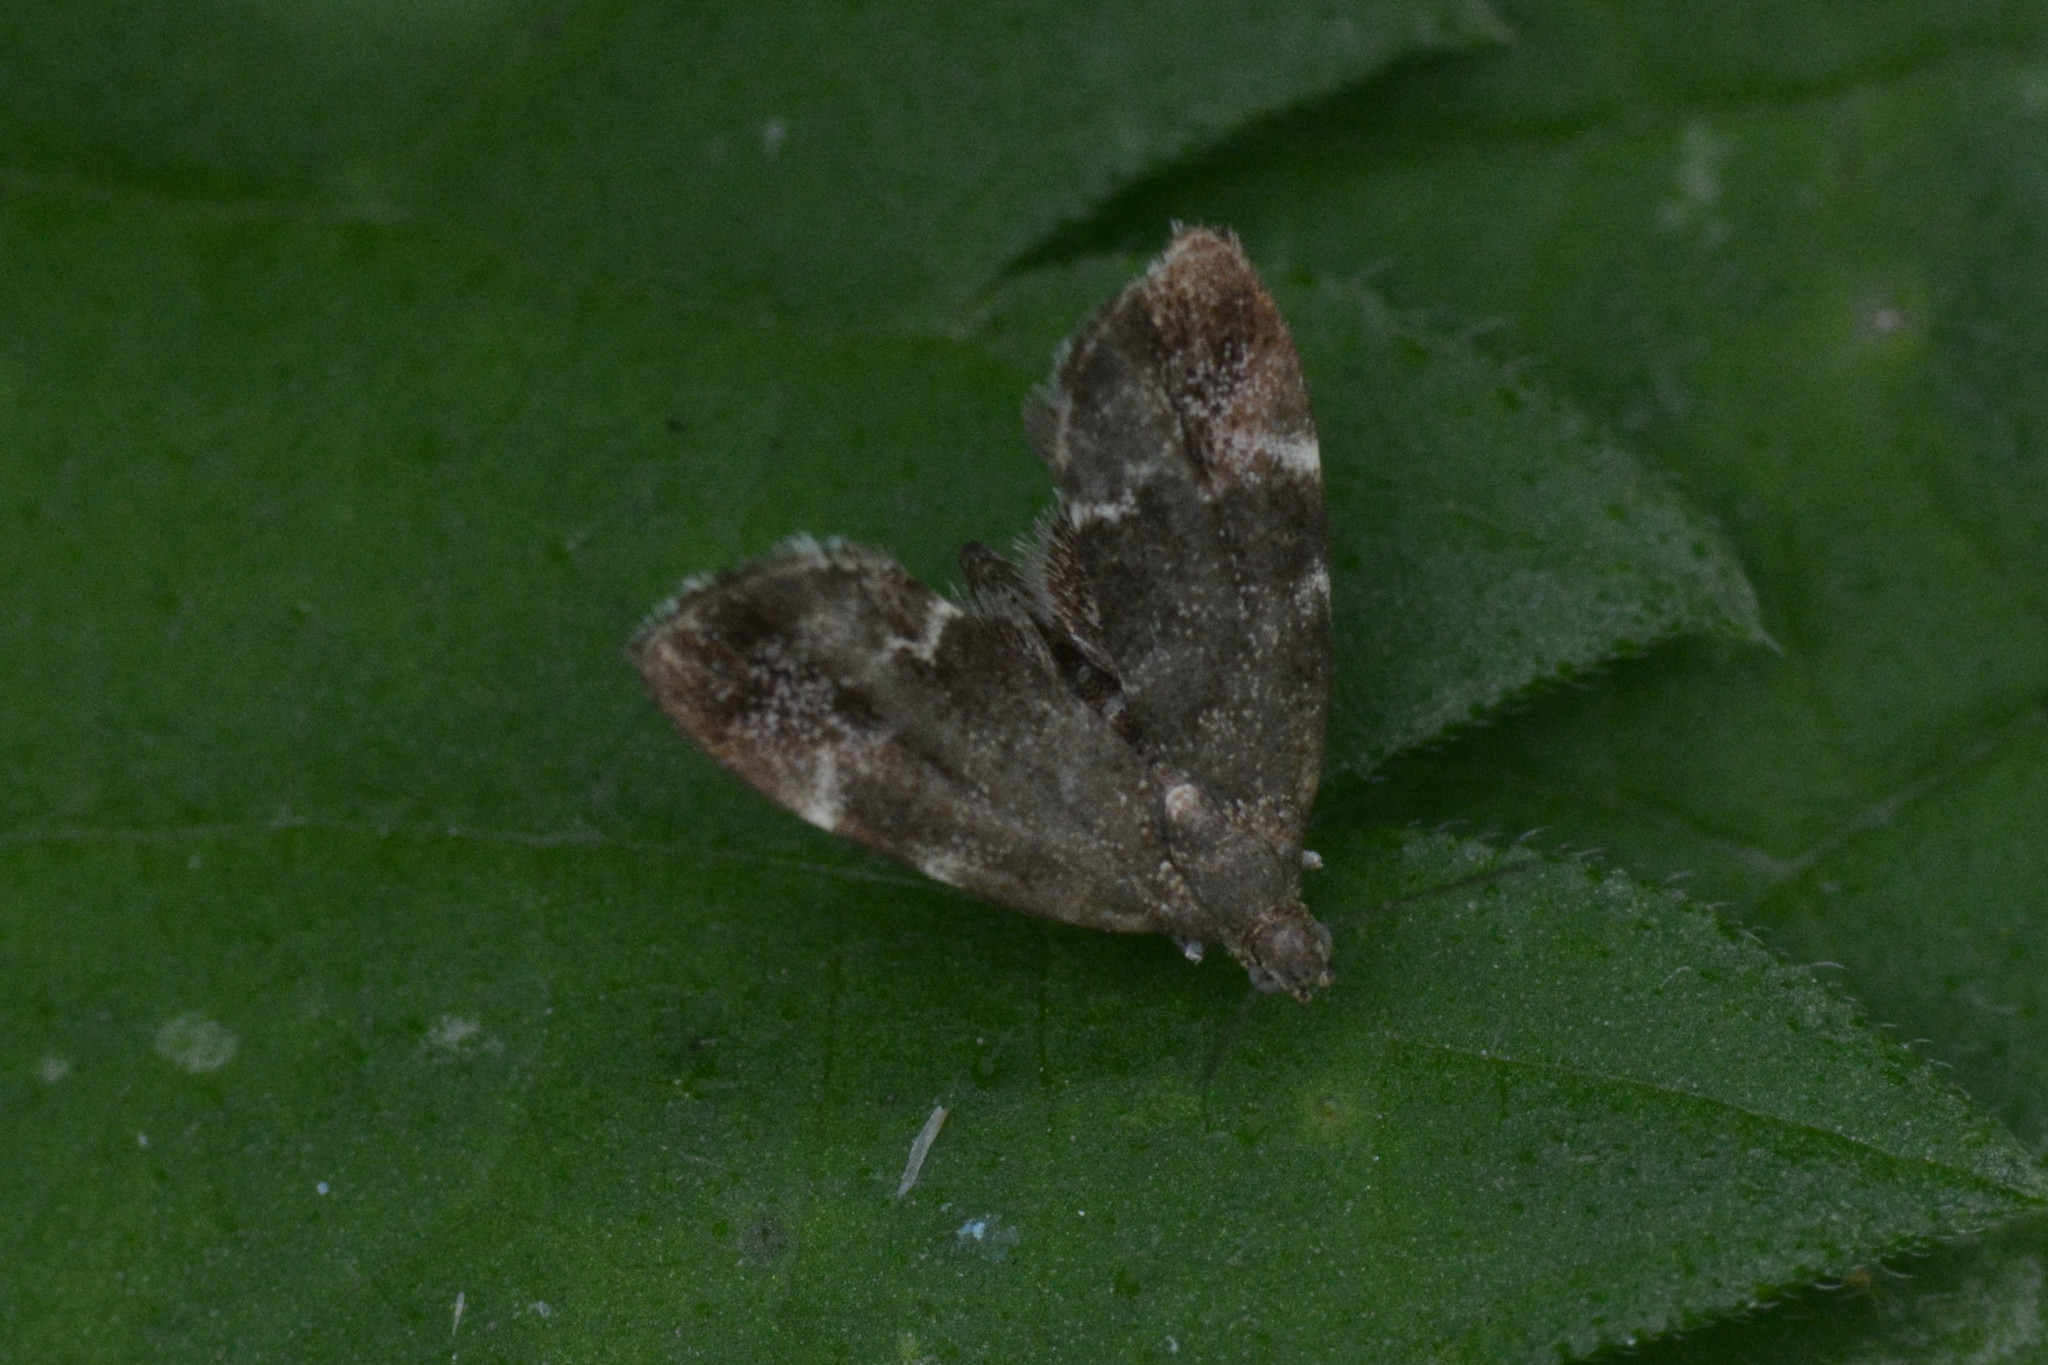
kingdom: Animalia
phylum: Arthropoda
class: Insecta
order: Lepidoptera
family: Choreutidae
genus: Anthophila
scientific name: Anthophila fabriciana
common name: Nettle-tap
